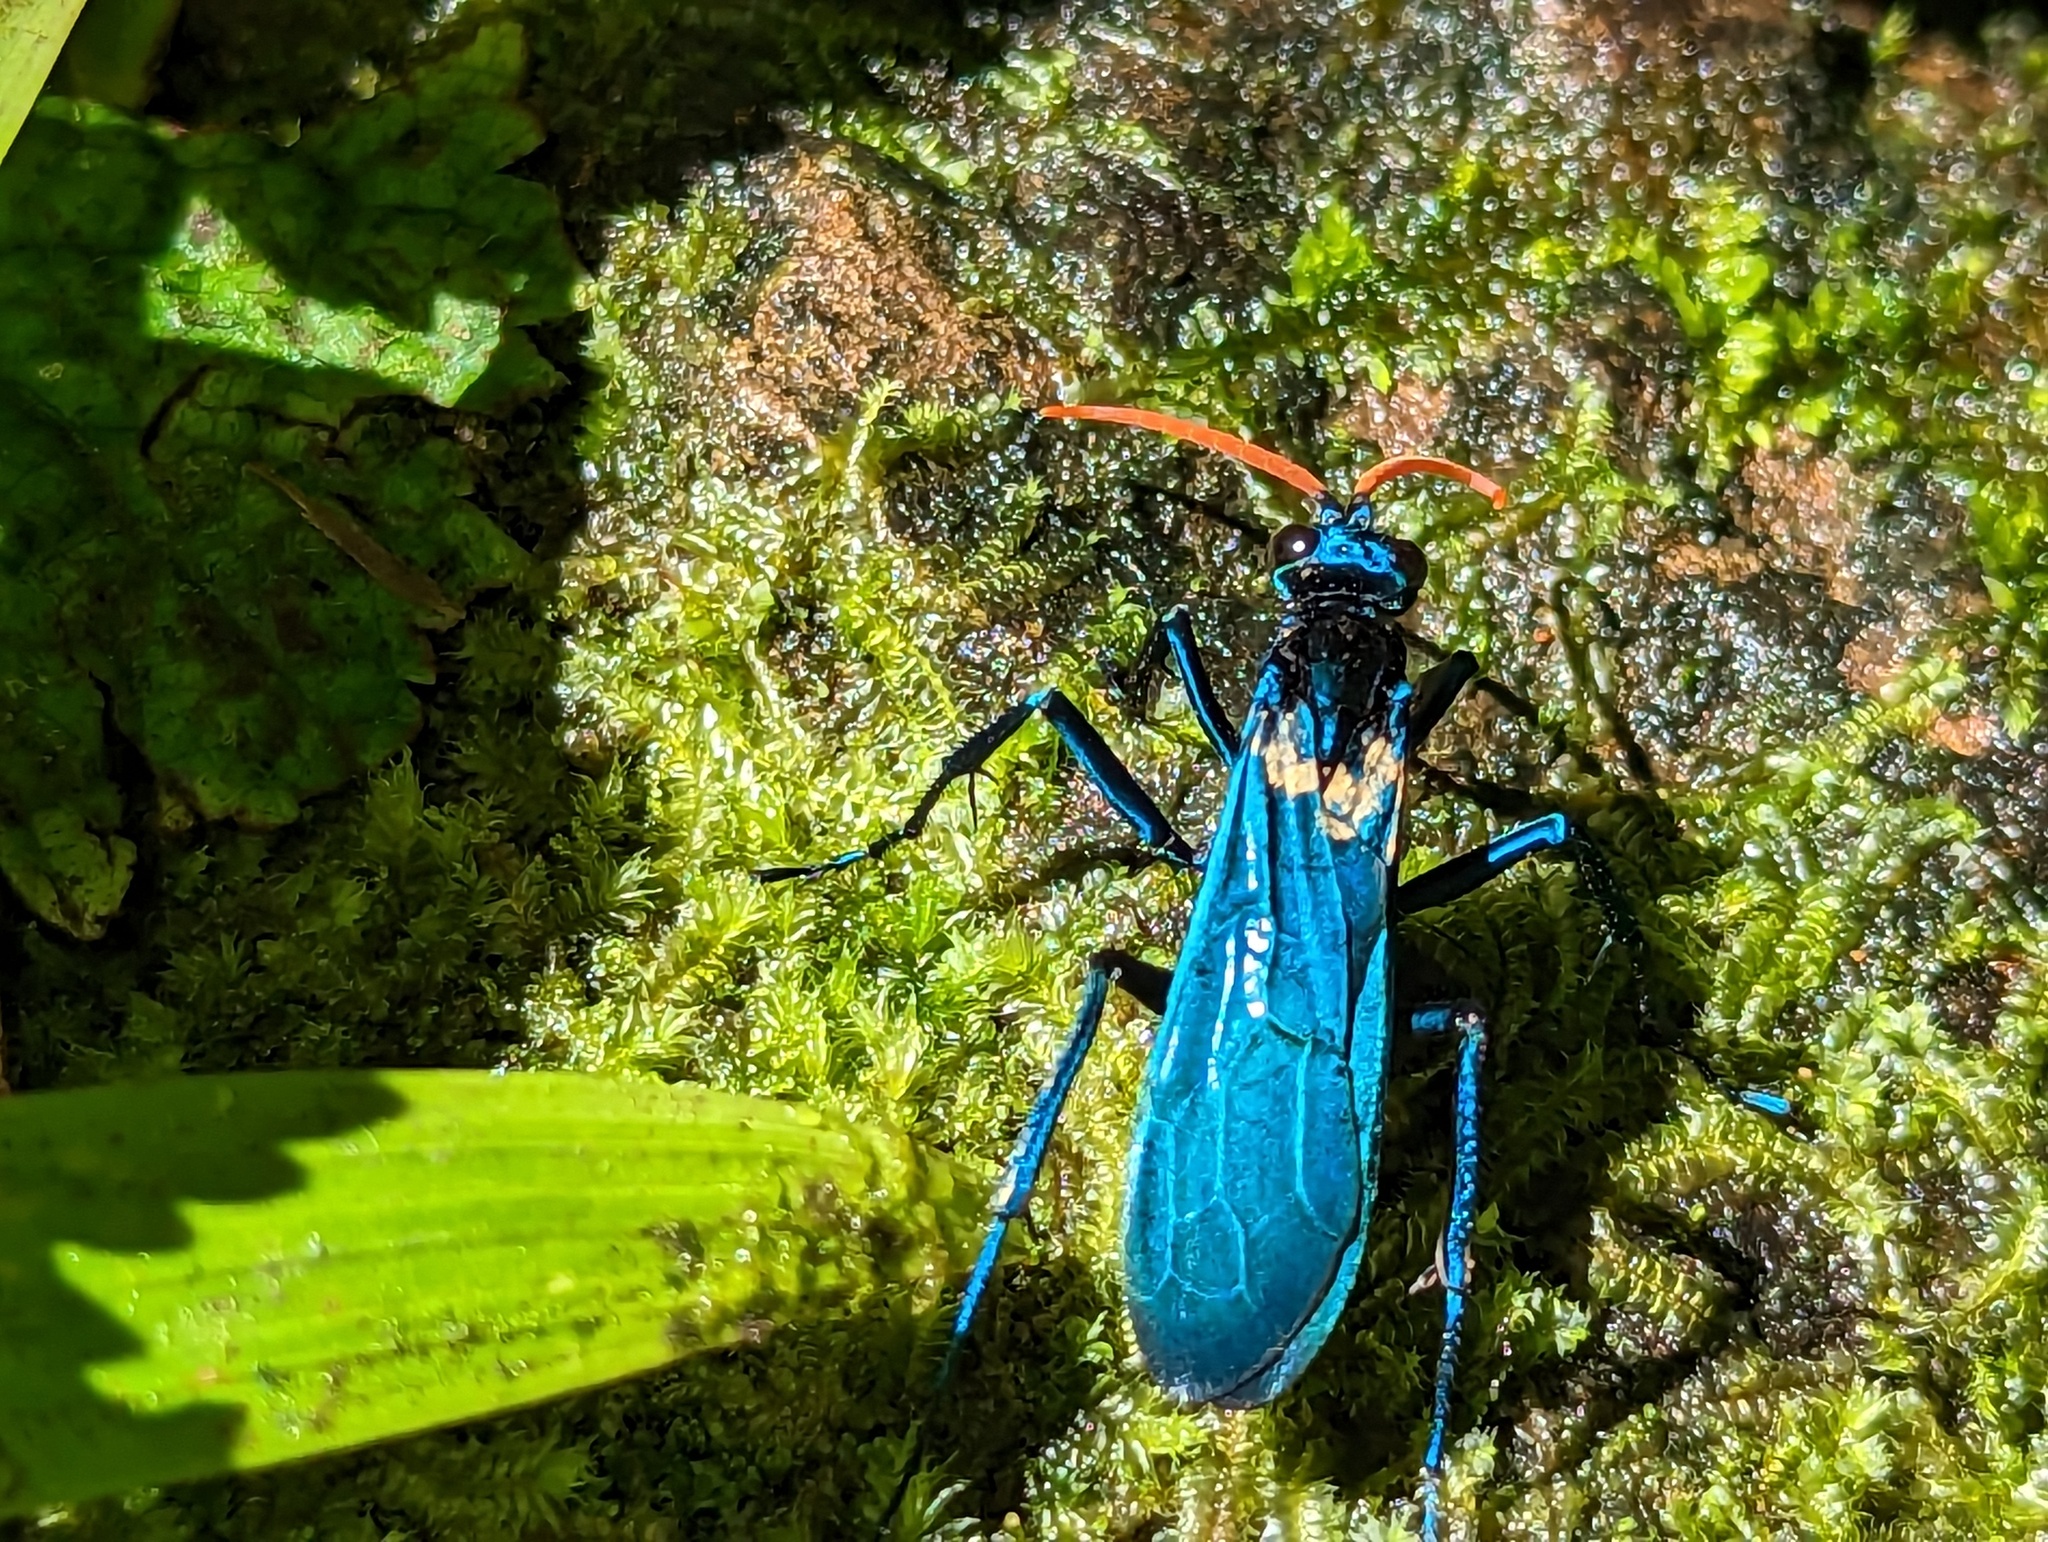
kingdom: Animalia
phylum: Arthropoda
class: Insecta
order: Hymenoptera
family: Pompilidae
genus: Pepsis
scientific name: Pepsis ruficornis
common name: Orange-horned tarantula hawk
